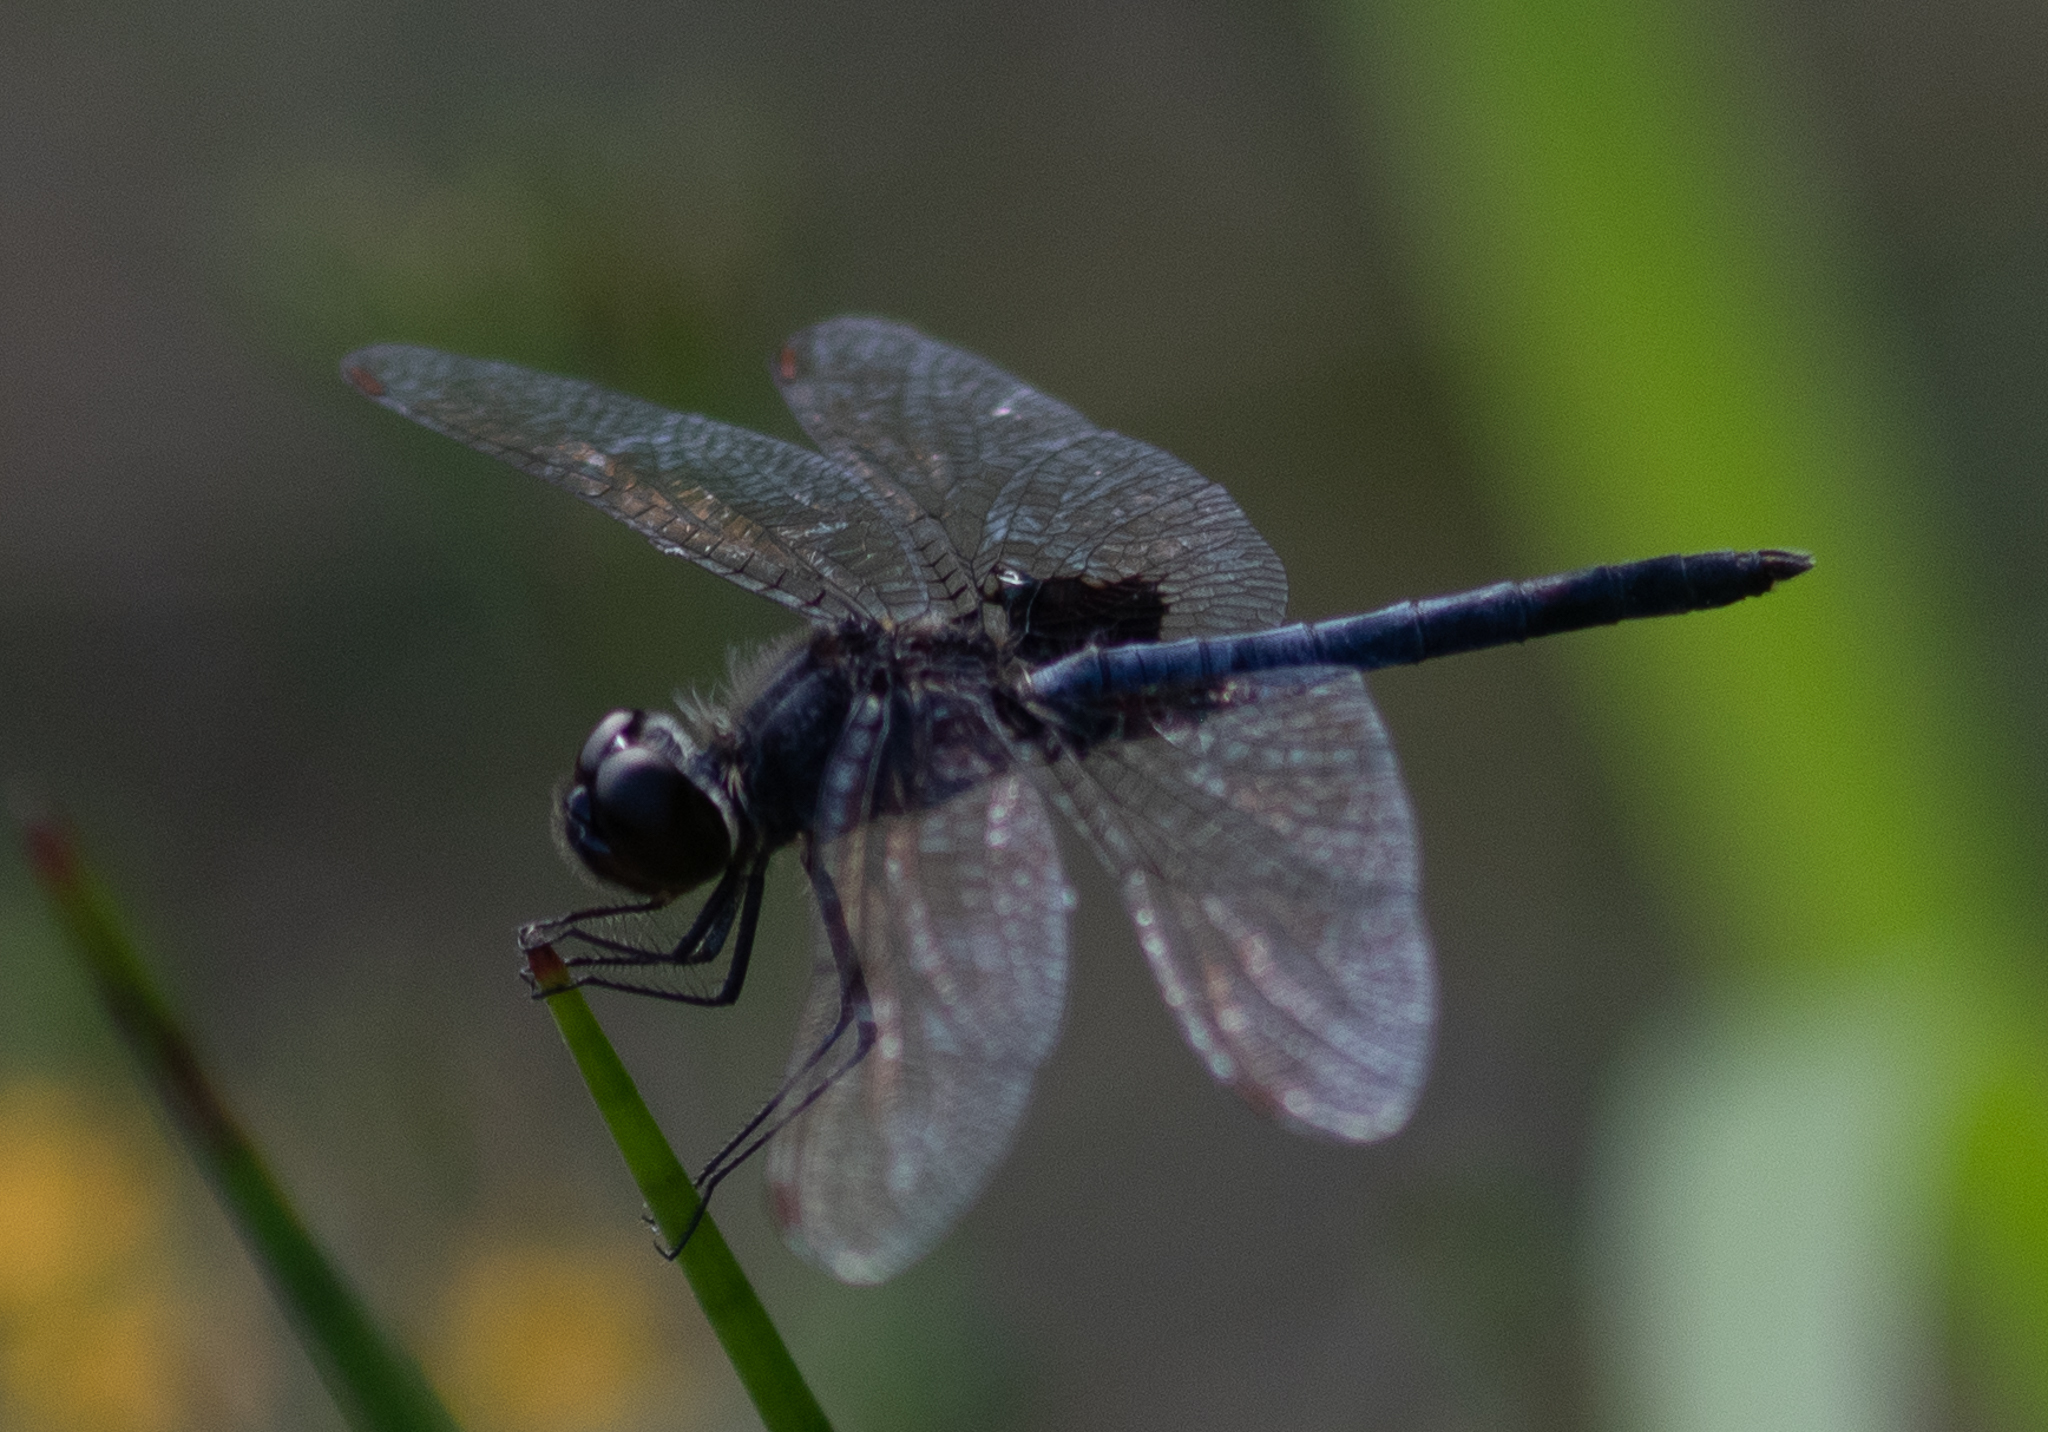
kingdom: Animalia
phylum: Arthropoda
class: Insecta
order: Odonata
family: Libellulidae
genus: Celithemis
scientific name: Celithemis martha
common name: Martha's pennant
